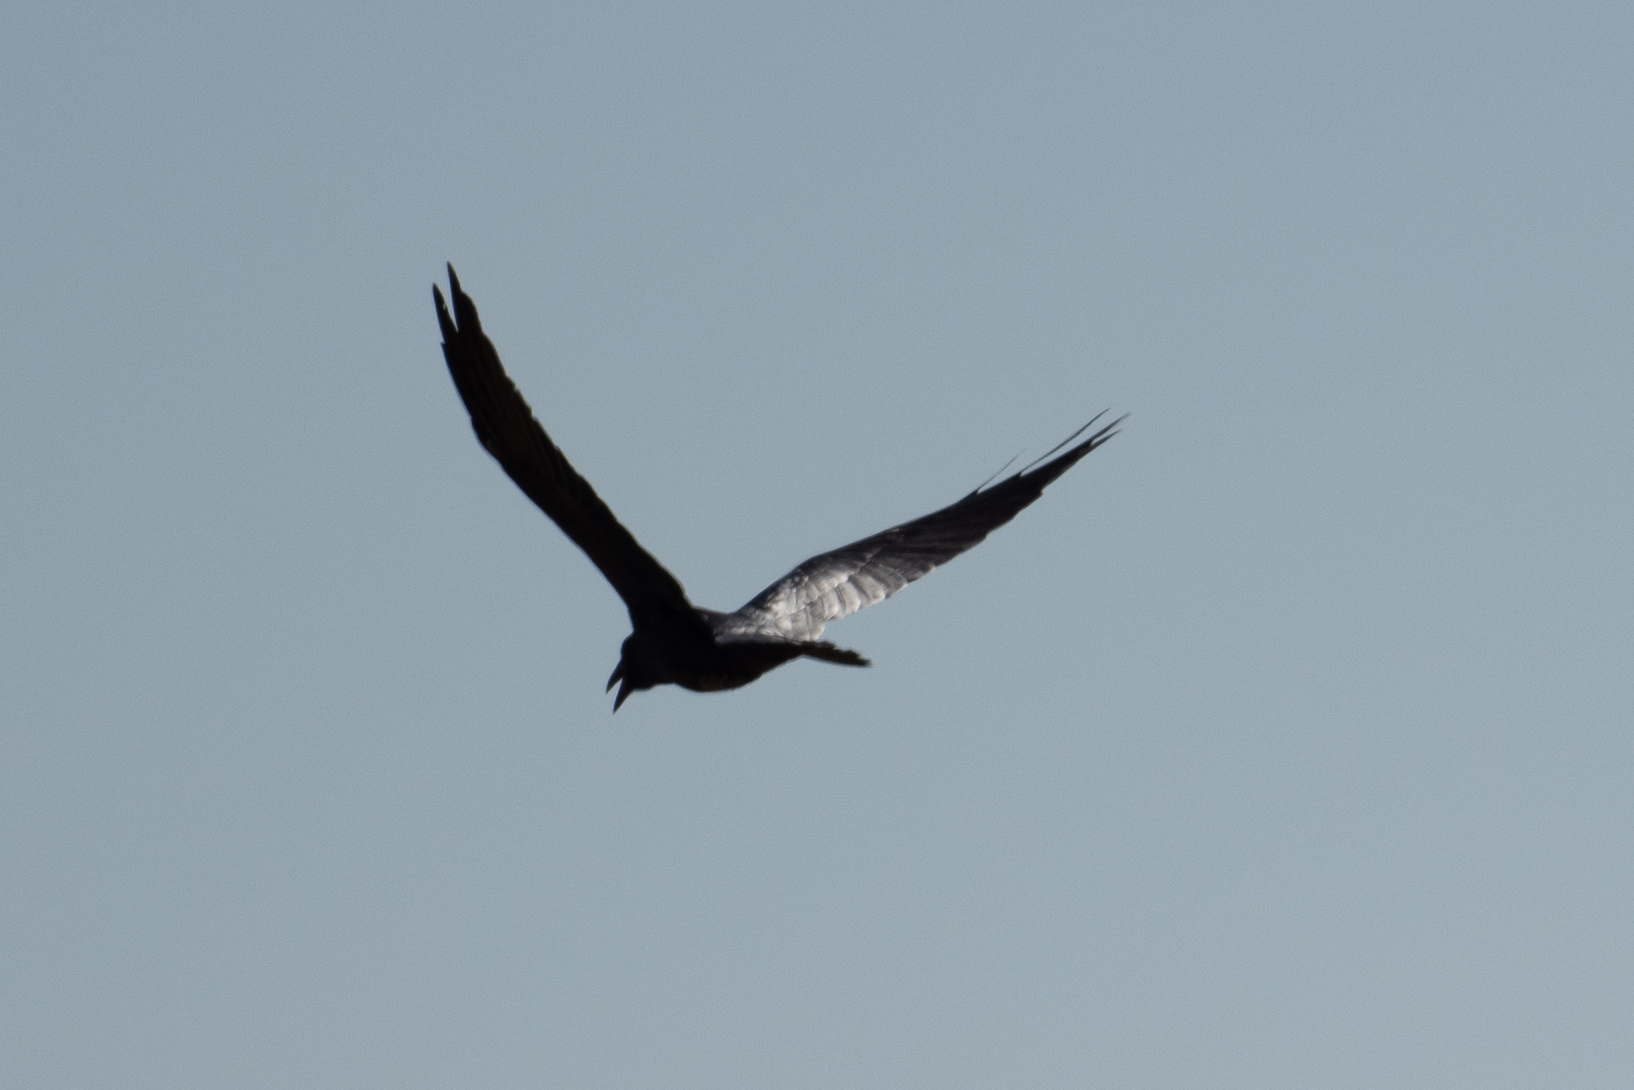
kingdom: Animalia
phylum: Chordata
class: Aves
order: Passeriformes
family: Corvidae
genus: Corvus
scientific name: Corvus corax
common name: Common raven
